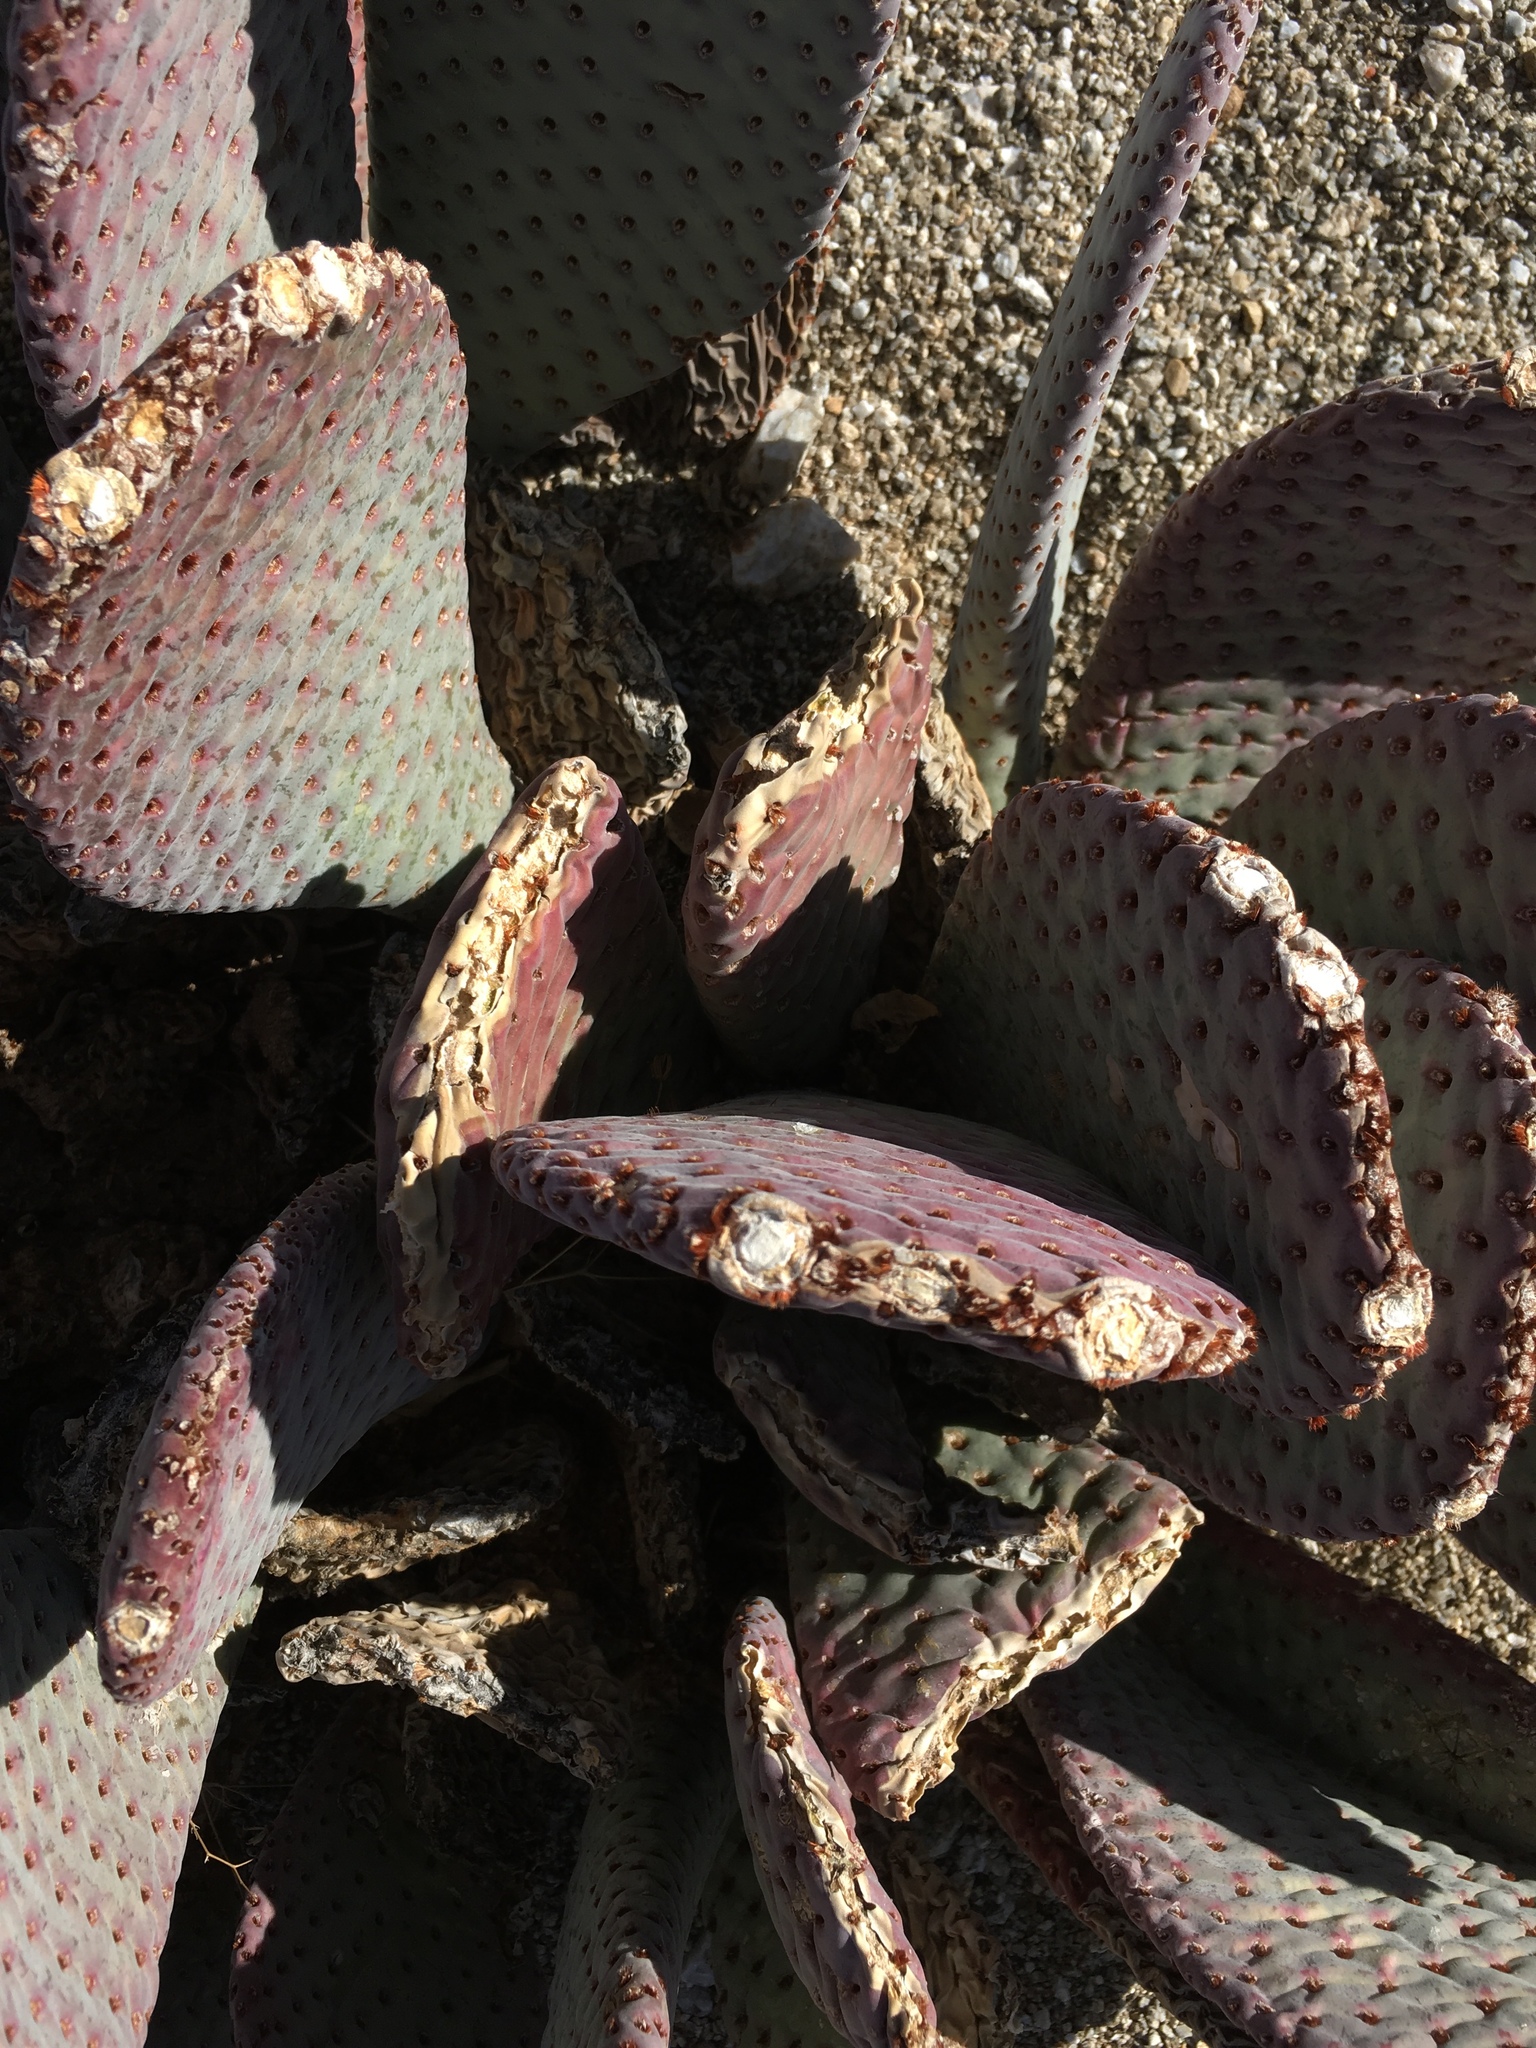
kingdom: Plantae
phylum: Tracheophyta
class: Magnoliopsida
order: Caryophyllales
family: Cactaceae
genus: Opuntia
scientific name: Opuntia basilaris
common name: Beavertail prickly-pear
